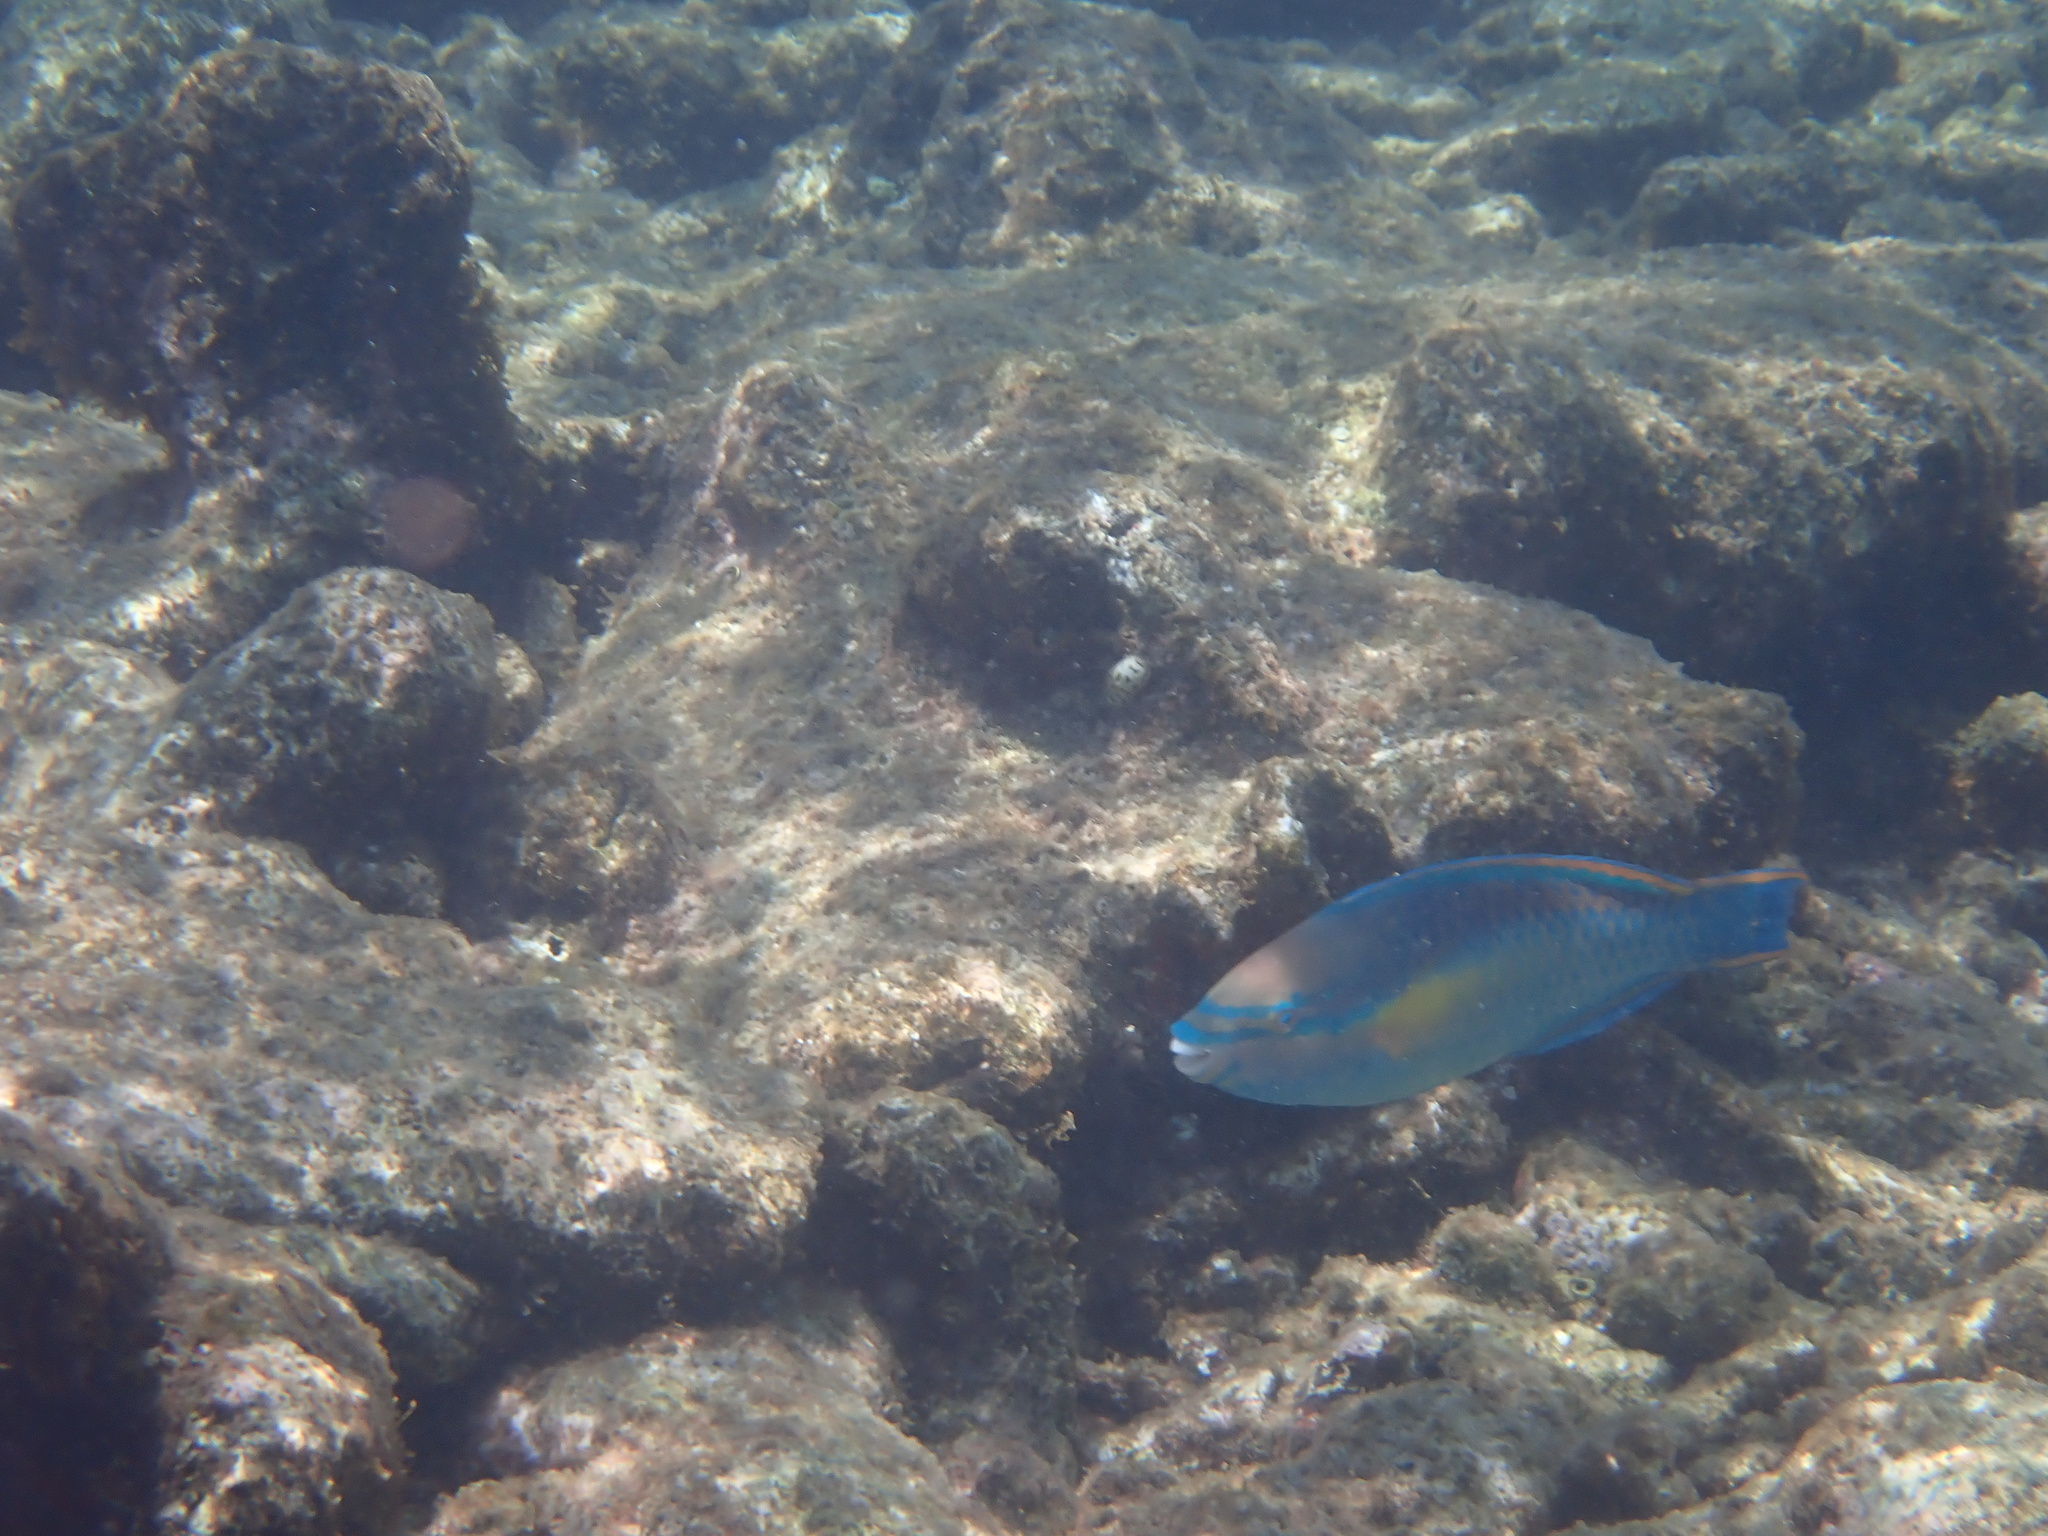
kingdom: Animalia
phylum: Chordata
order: Perciformes
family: Scaridae
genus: Scarus
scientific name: Scarus taeniopterus
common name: Princess parrotfish
